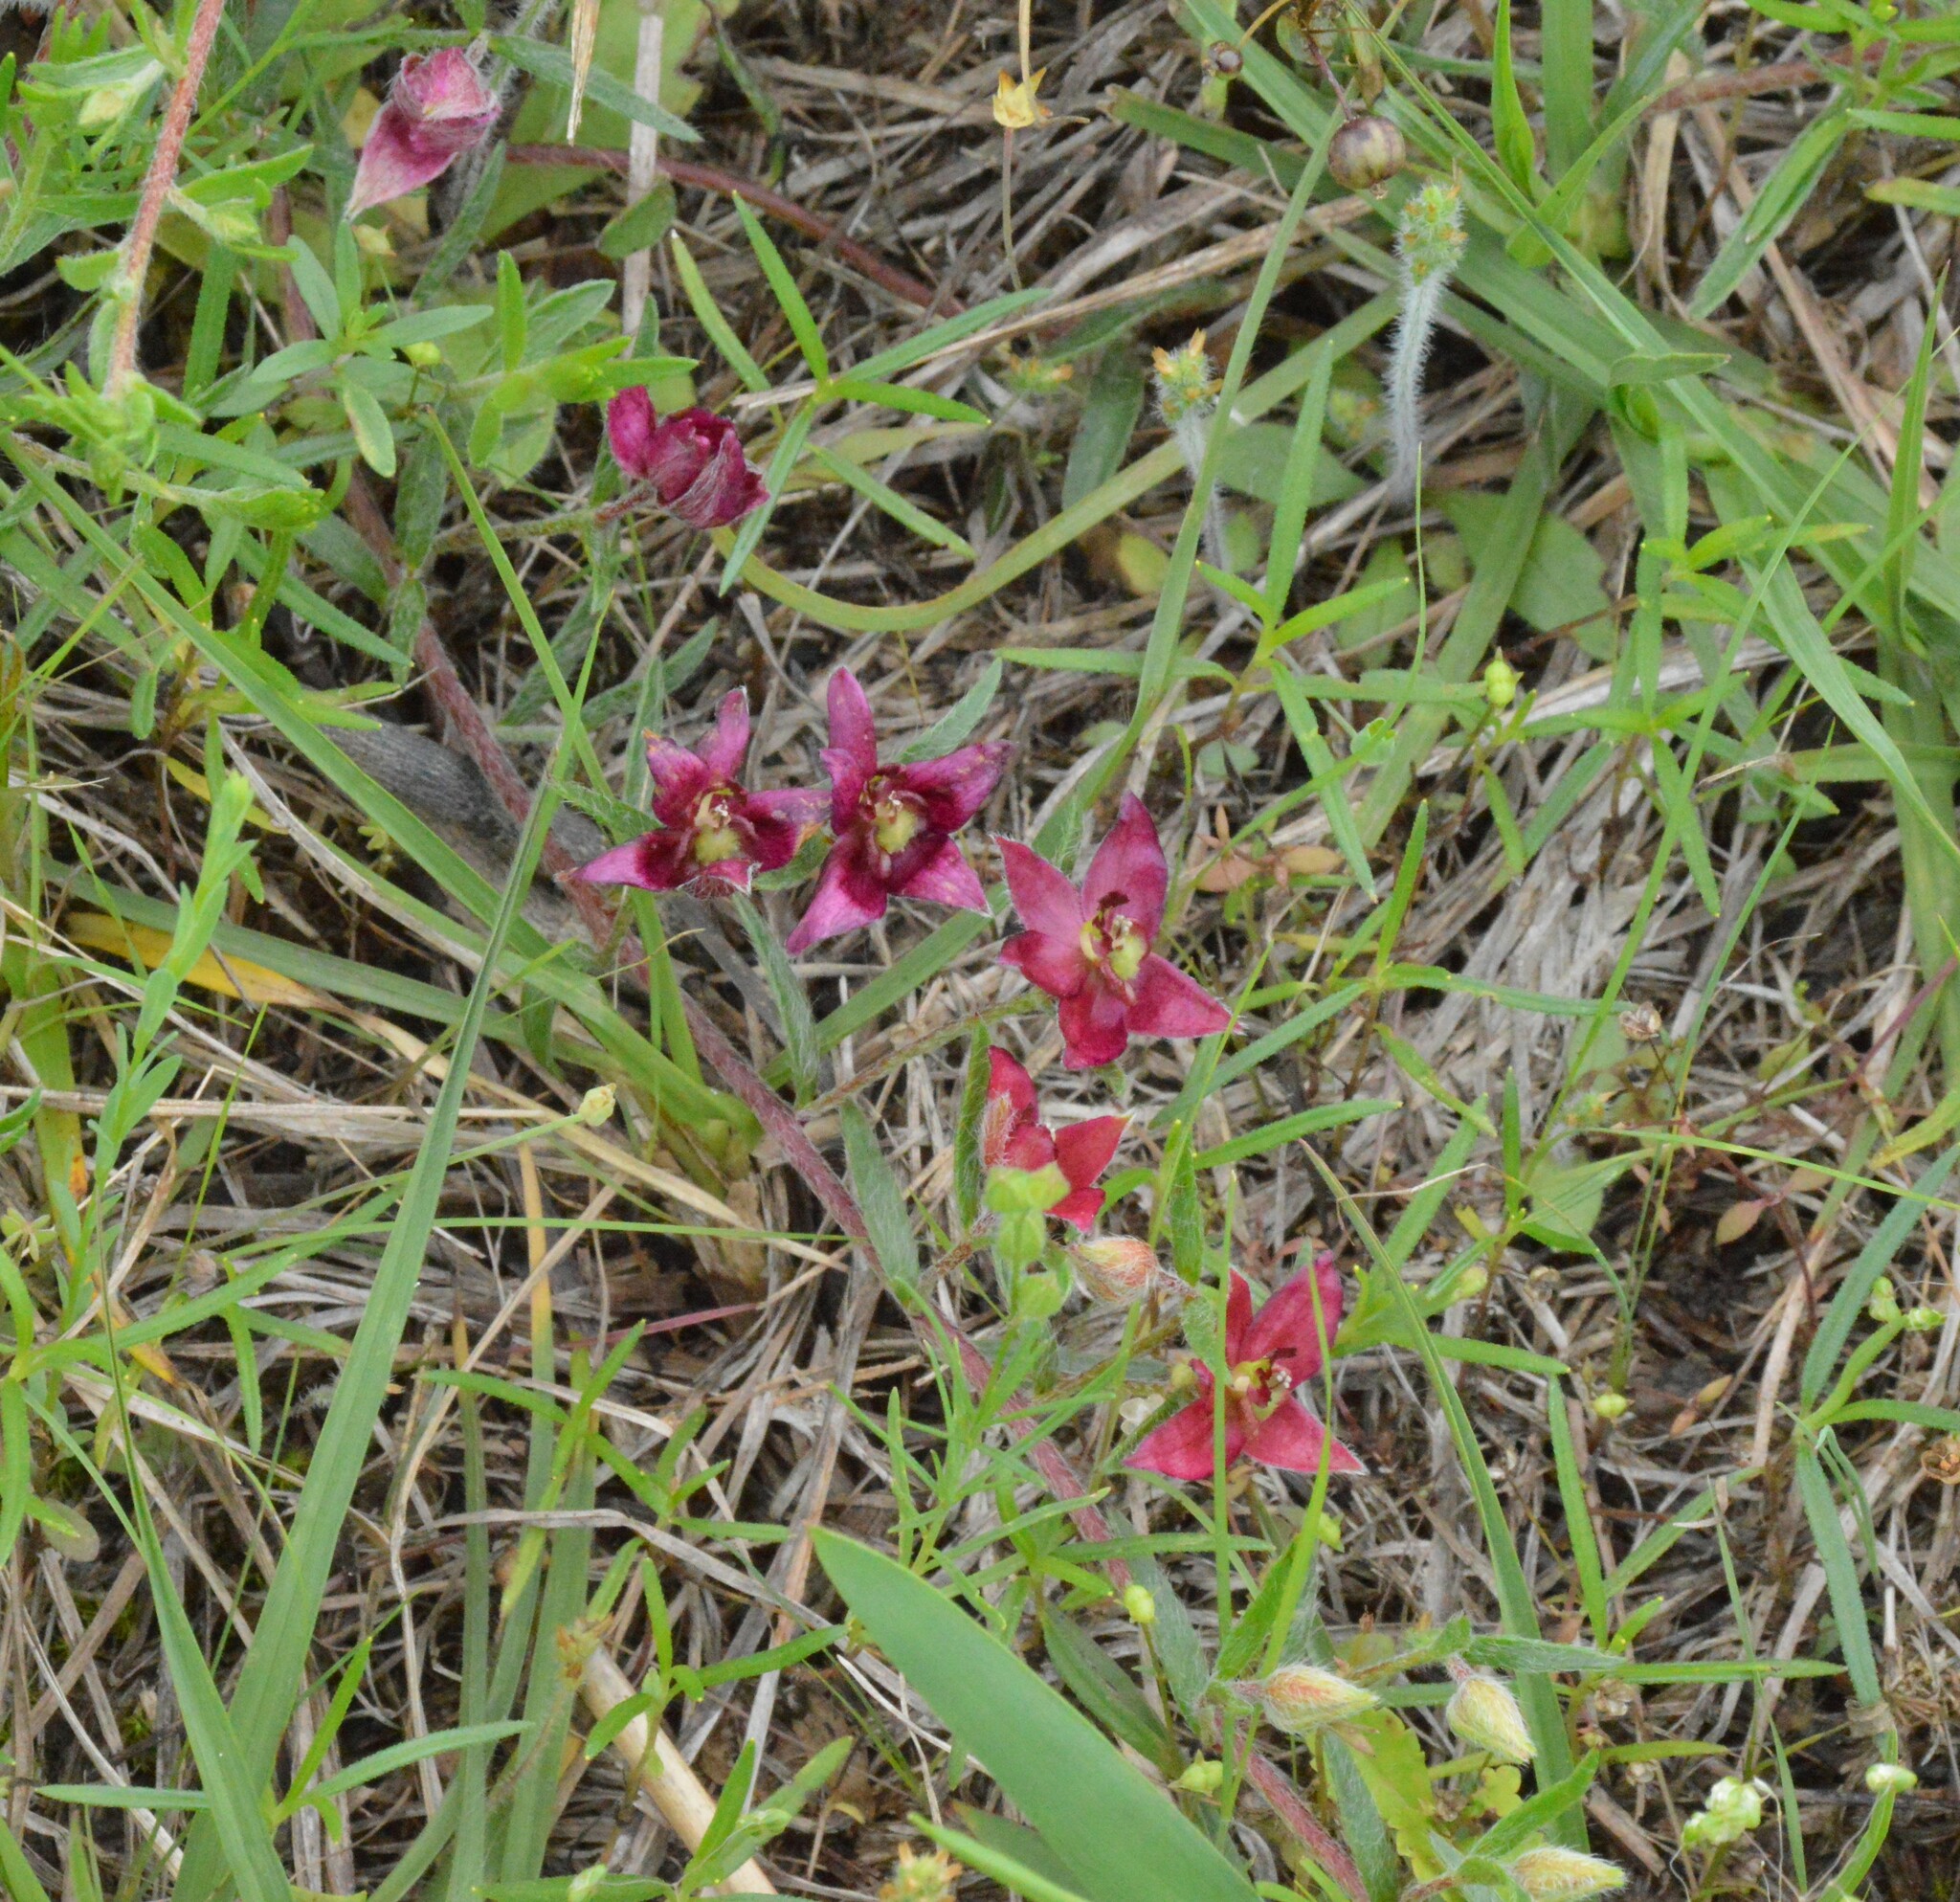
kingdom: Plantae
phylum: Tracheophyta
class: Magnoliopsida
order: Zygophyllales
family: Krameriaceae
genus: Krameria
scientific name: Krameria lanceolata
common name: Ratany
